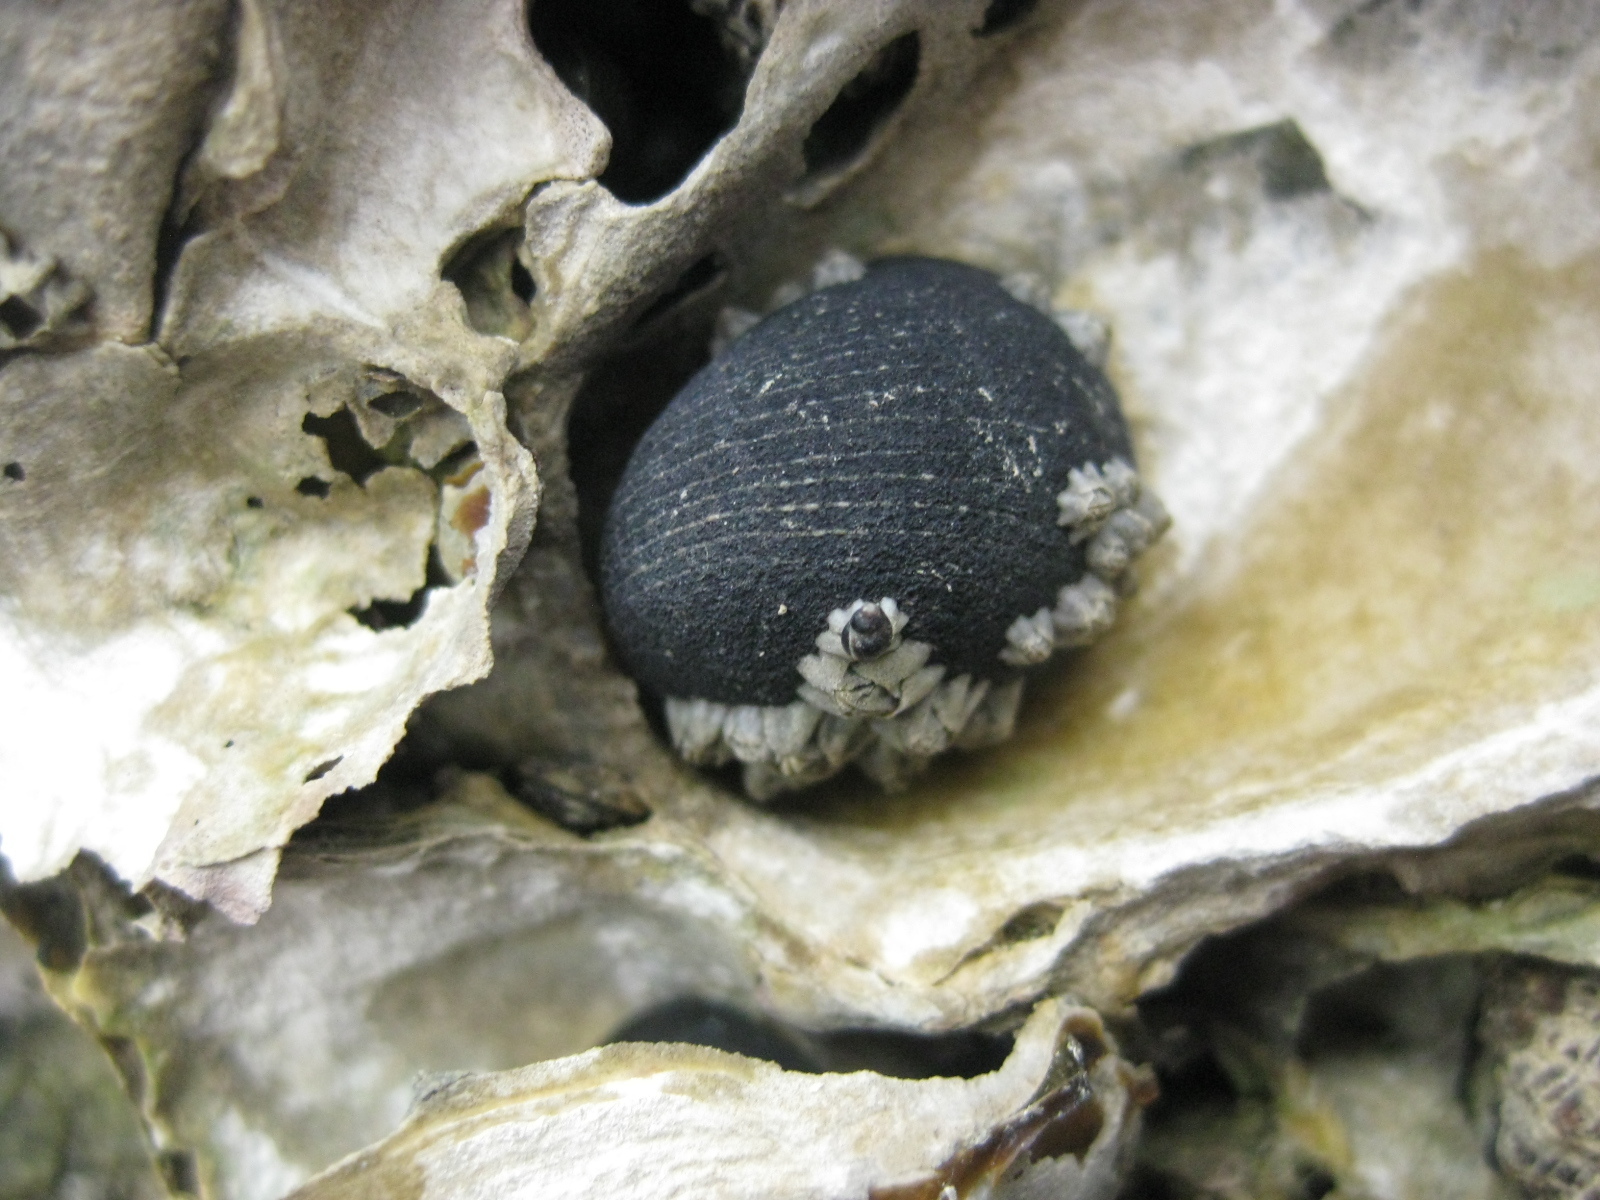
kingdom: Animalia
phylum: Mollusca
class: Gastropoda
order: Cycloneritida
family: Neritidae
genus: Nerita
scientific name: Nerita melanotragus
